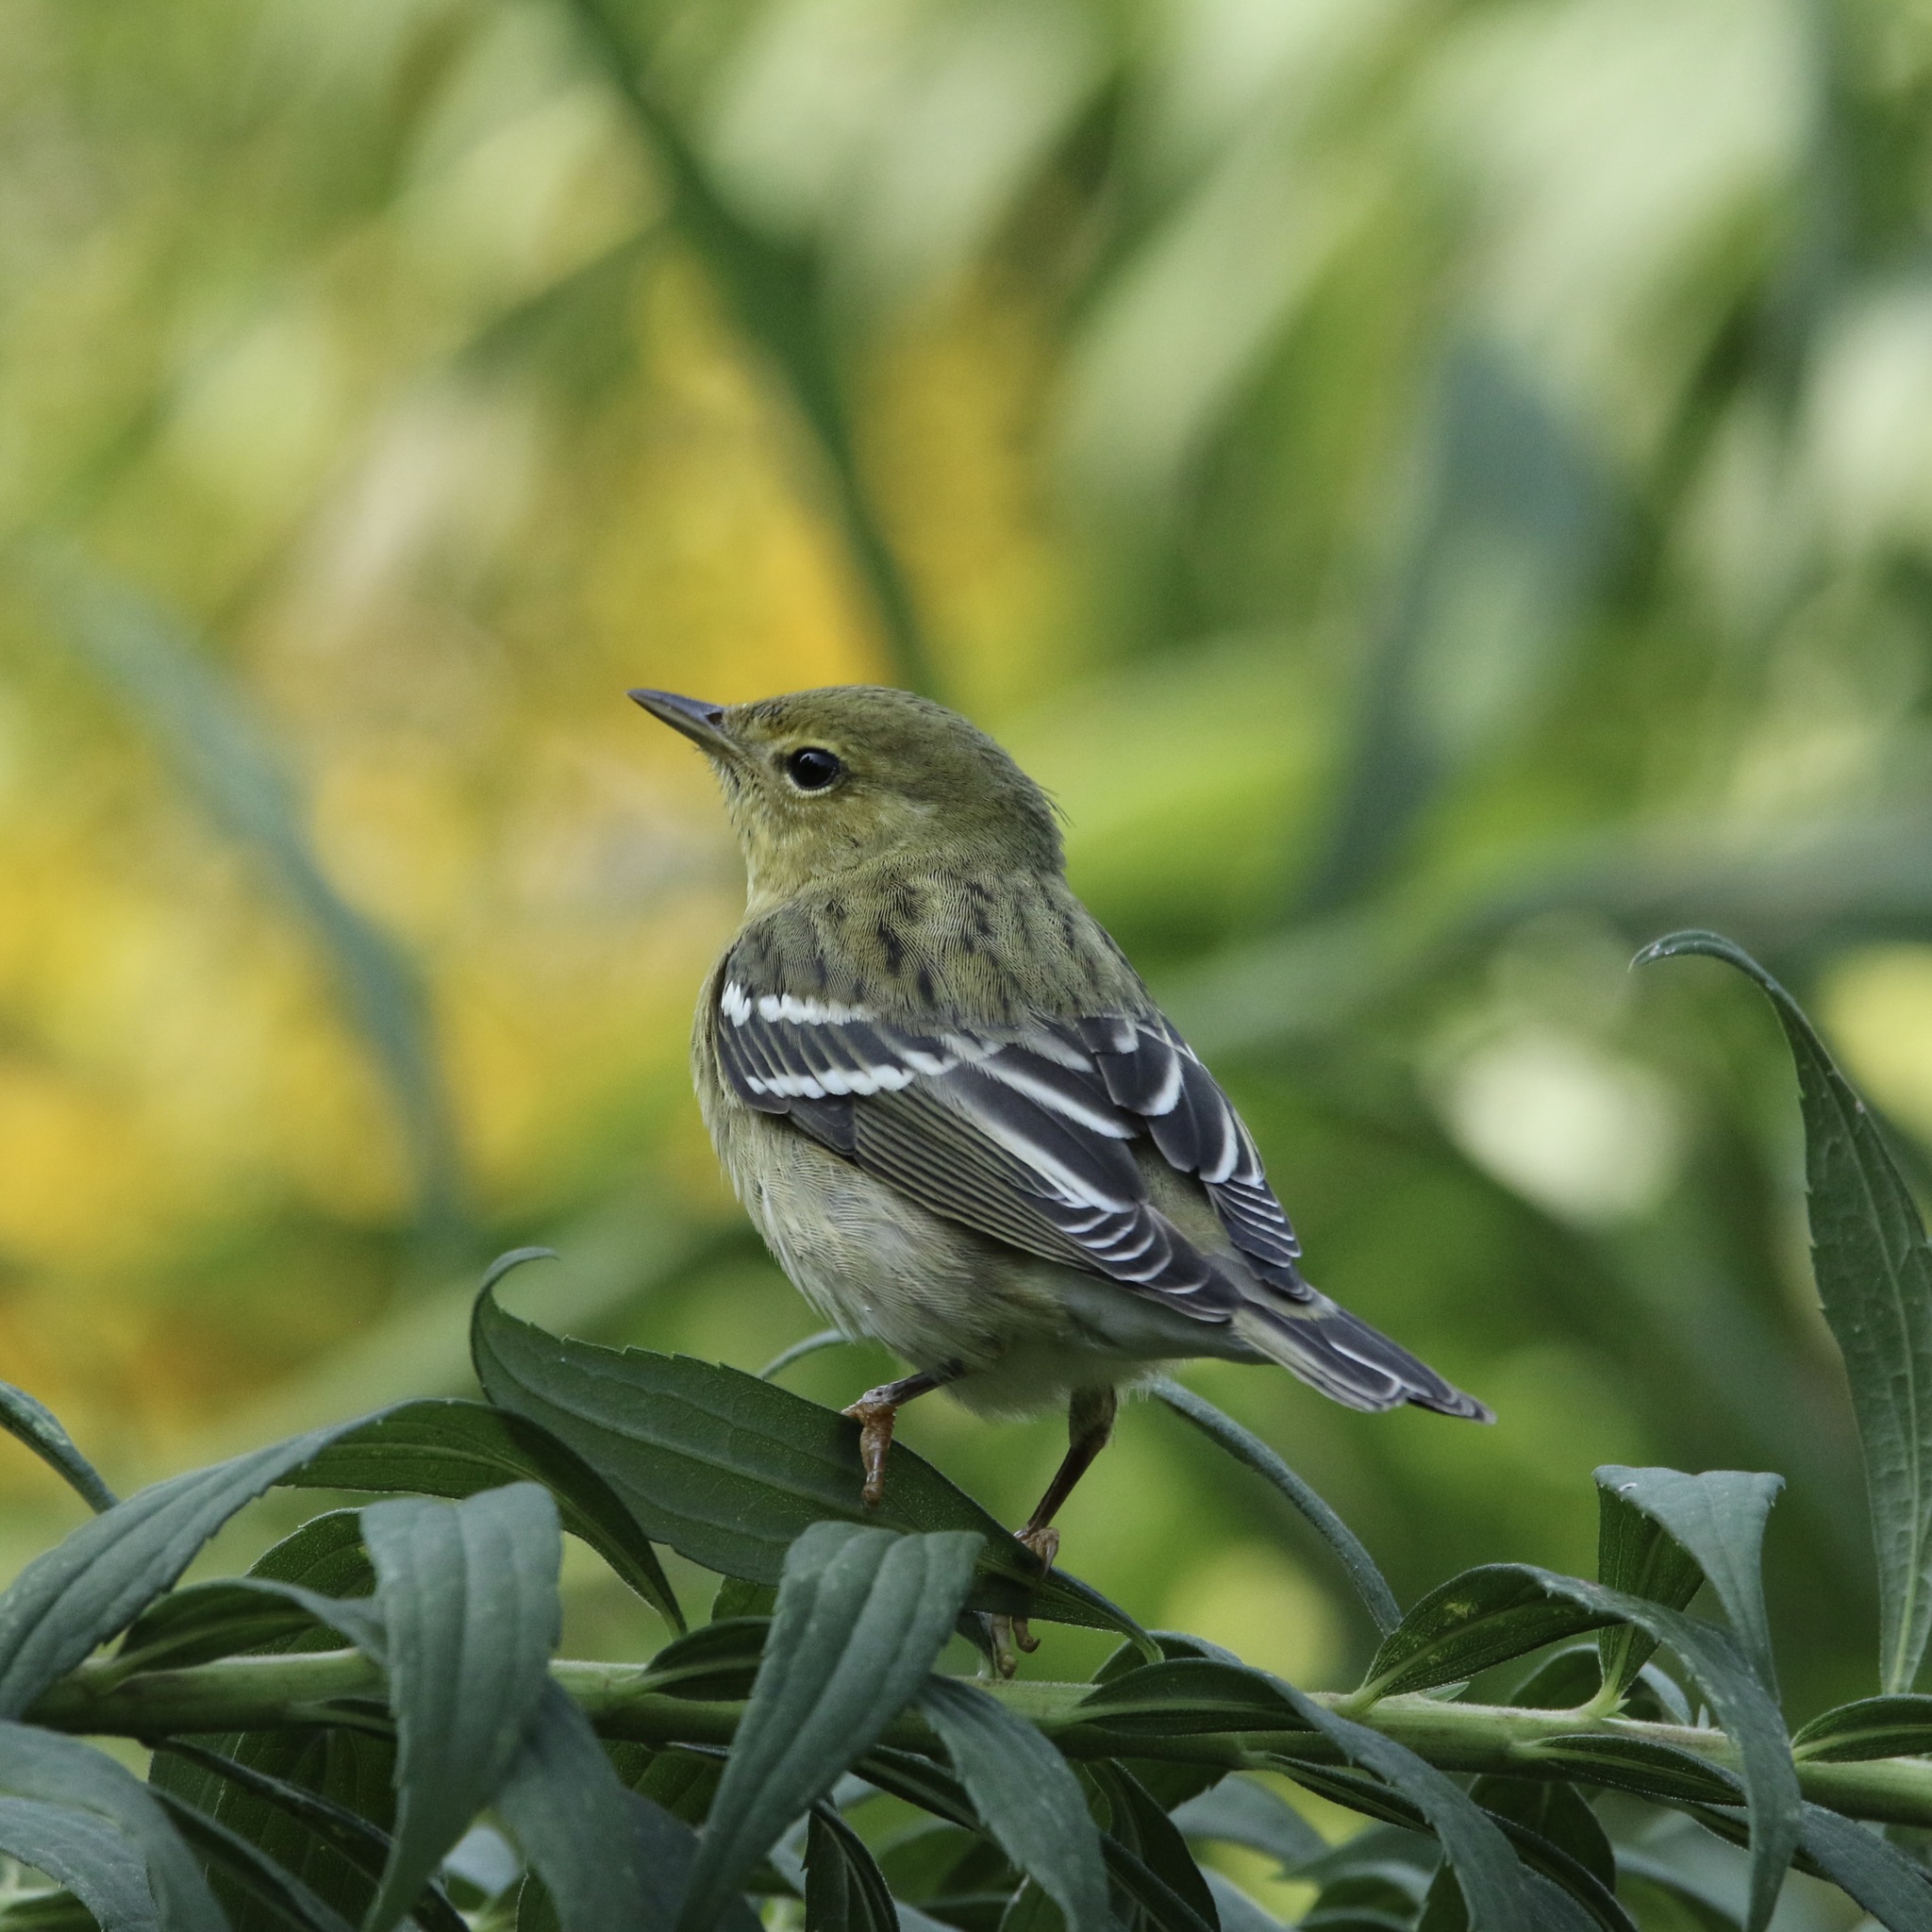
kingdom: Animalia
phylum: Chordata
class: Aves
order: Passeriformes
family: Parulidae
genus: Setophaga
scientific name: Setophaga striata
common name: Blackpoll warbler
